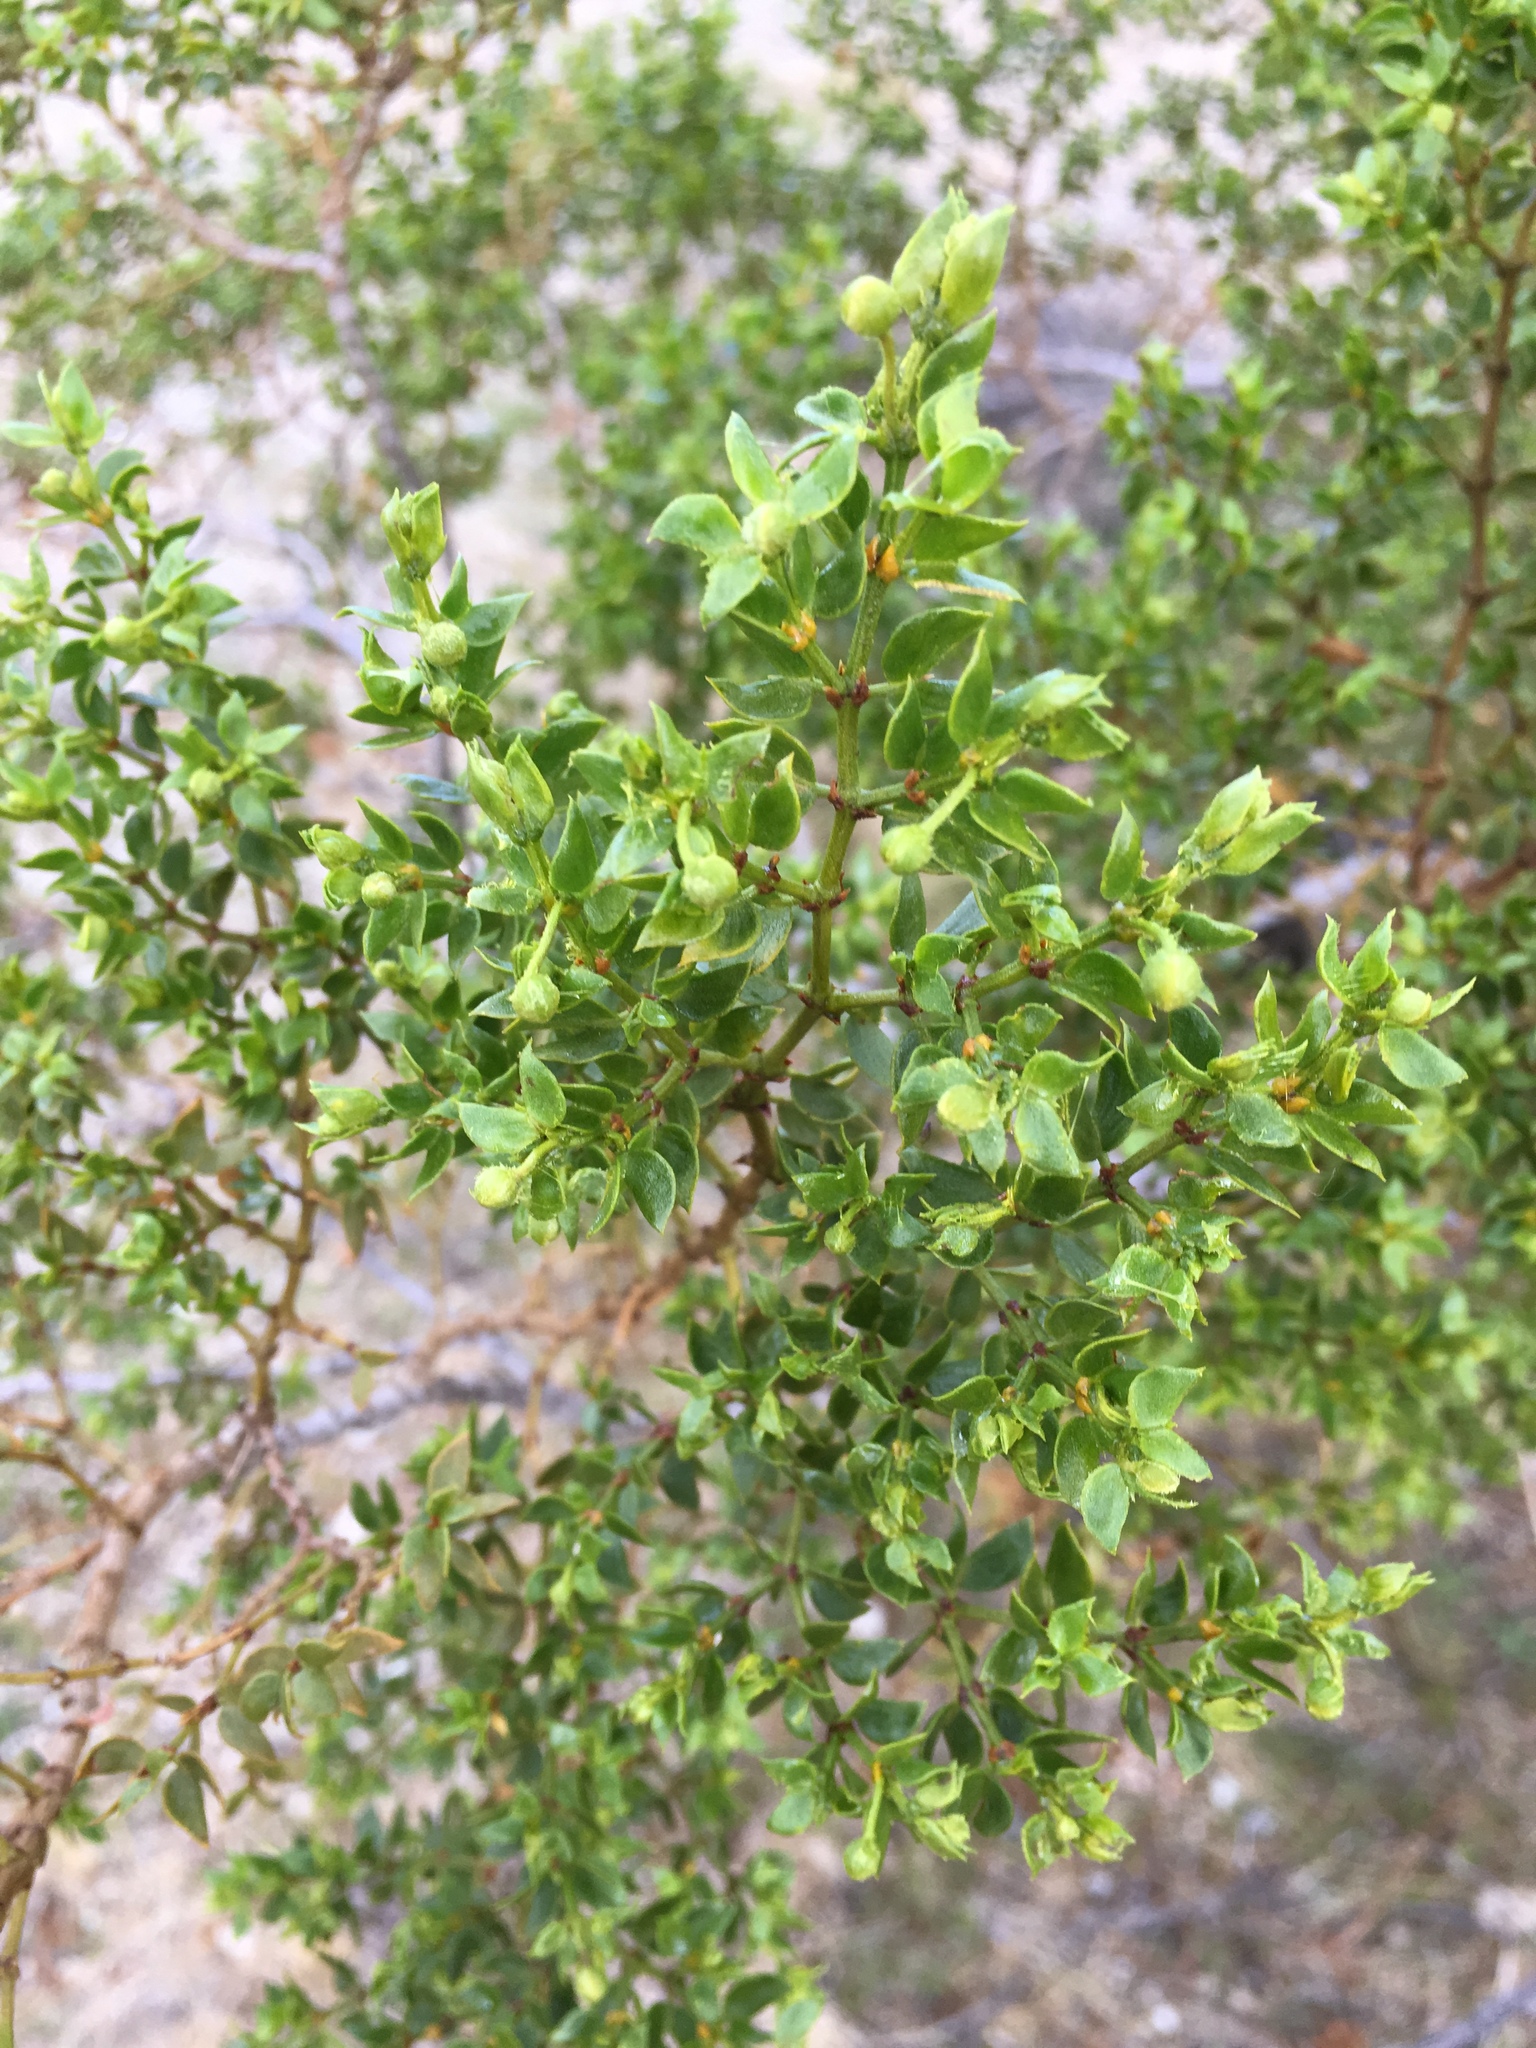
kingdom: Plantae
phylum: Tracheophyta
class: Magnoliopsida
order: Zygophyllales
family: Zygophyllaceae
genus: Larrea
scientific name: Larrea tridentata
